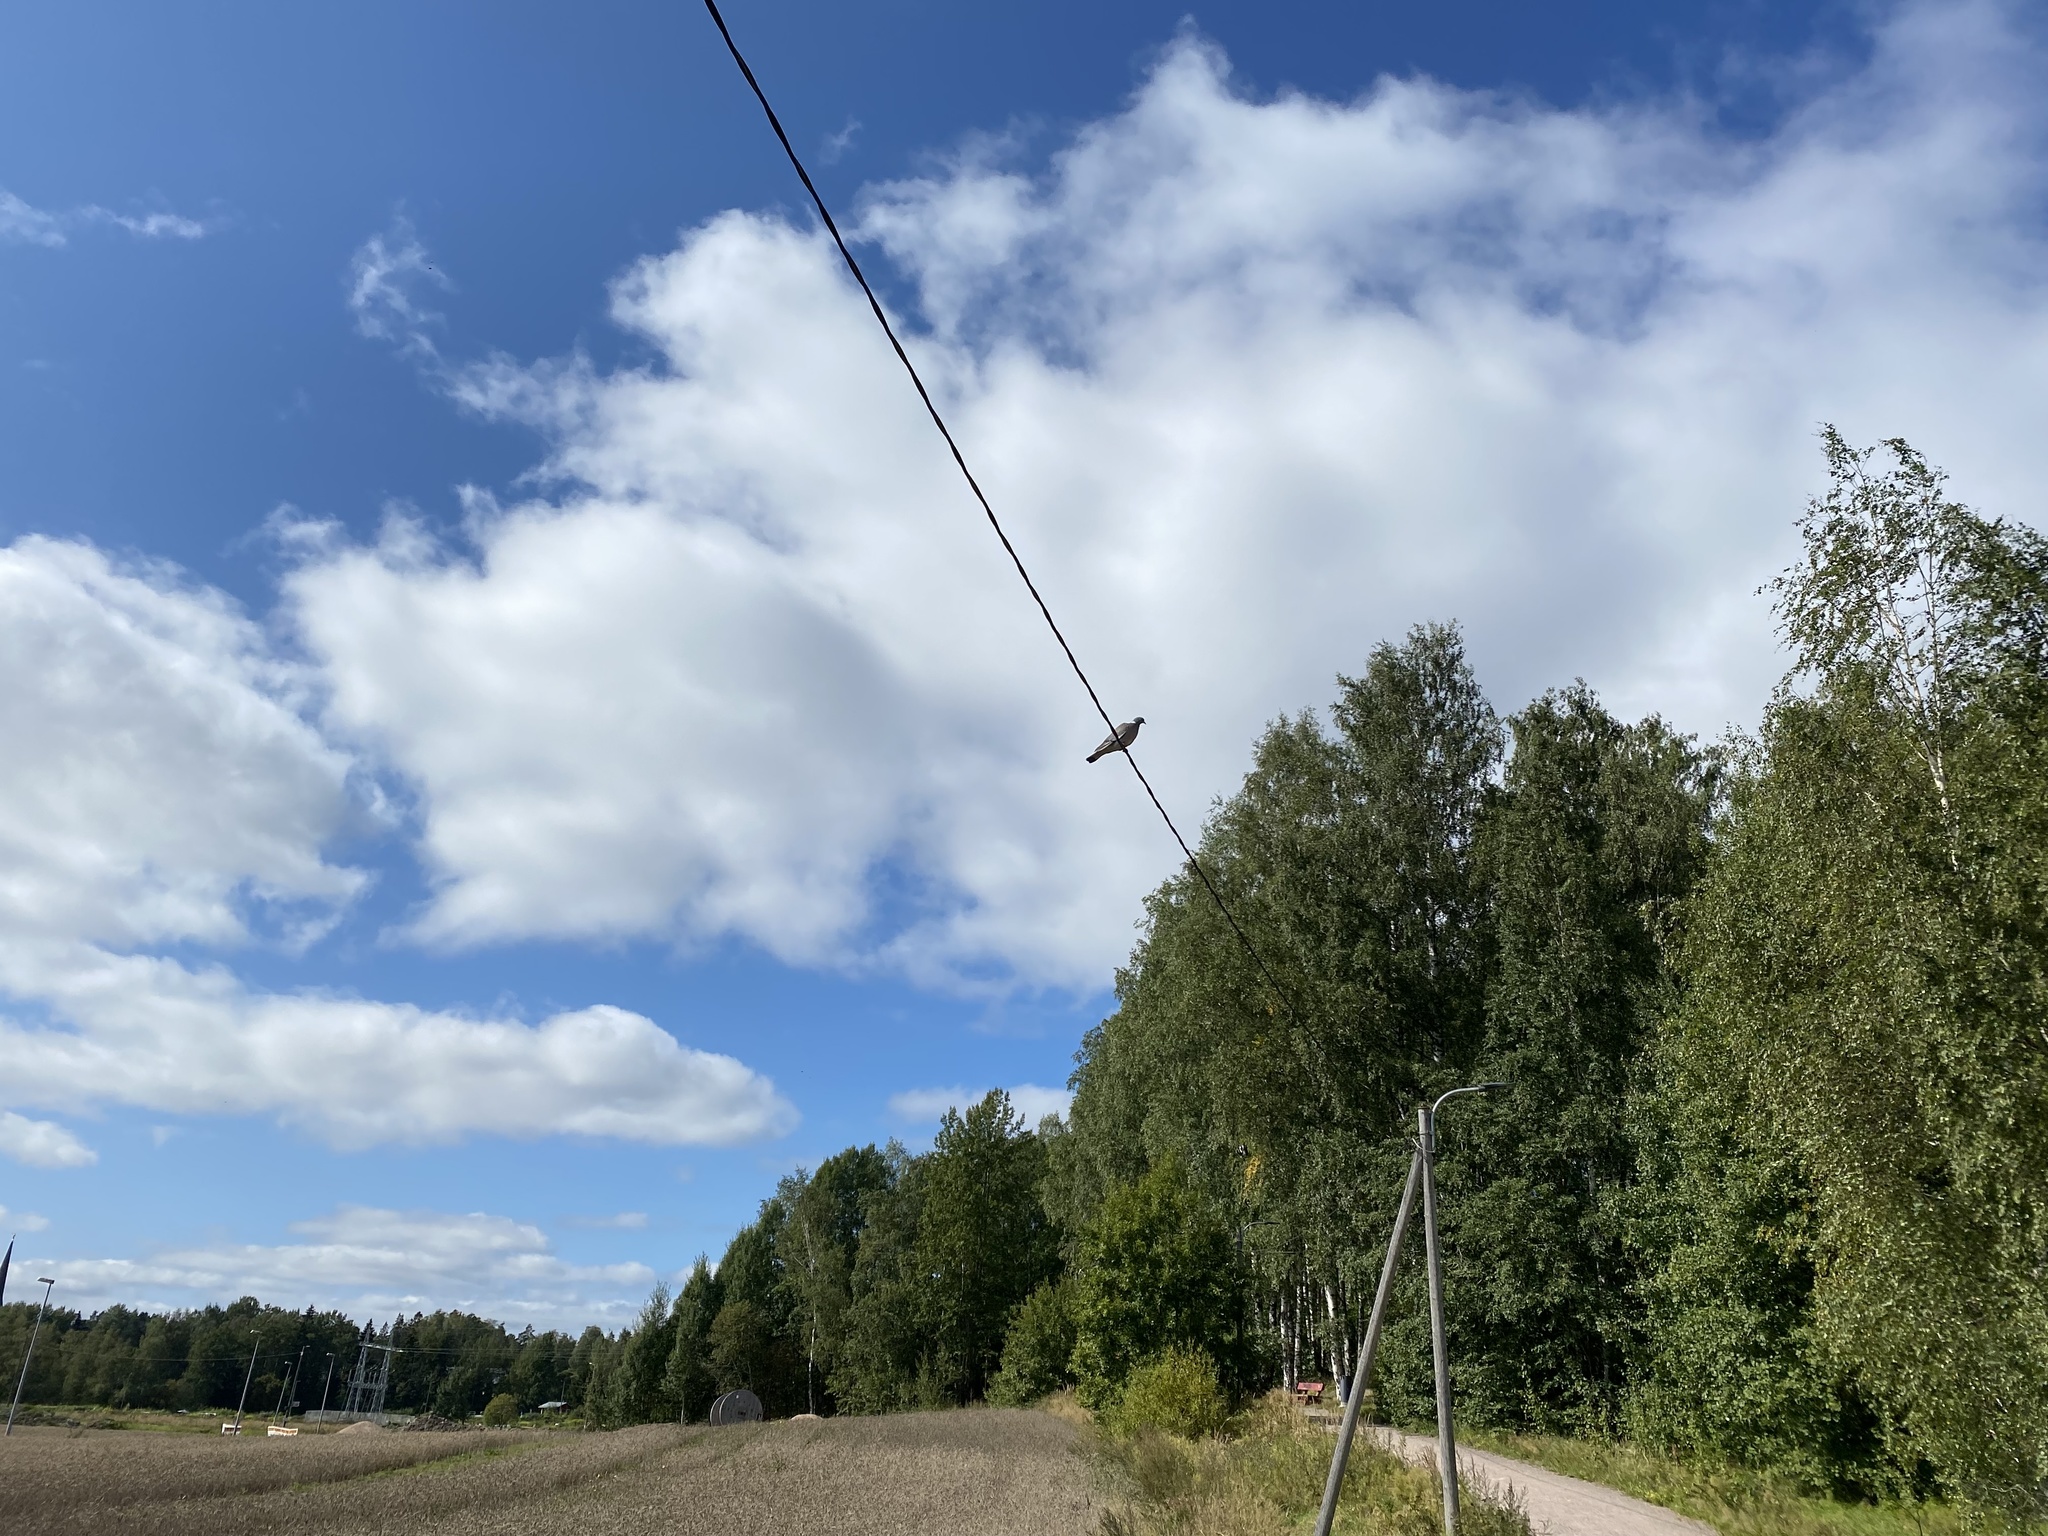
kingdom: Animalia
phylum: Chordata
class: Aves
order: Columbiformes
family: Columbidae
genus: Columba
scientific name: Columba palumbus
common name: Common wood pigeon
